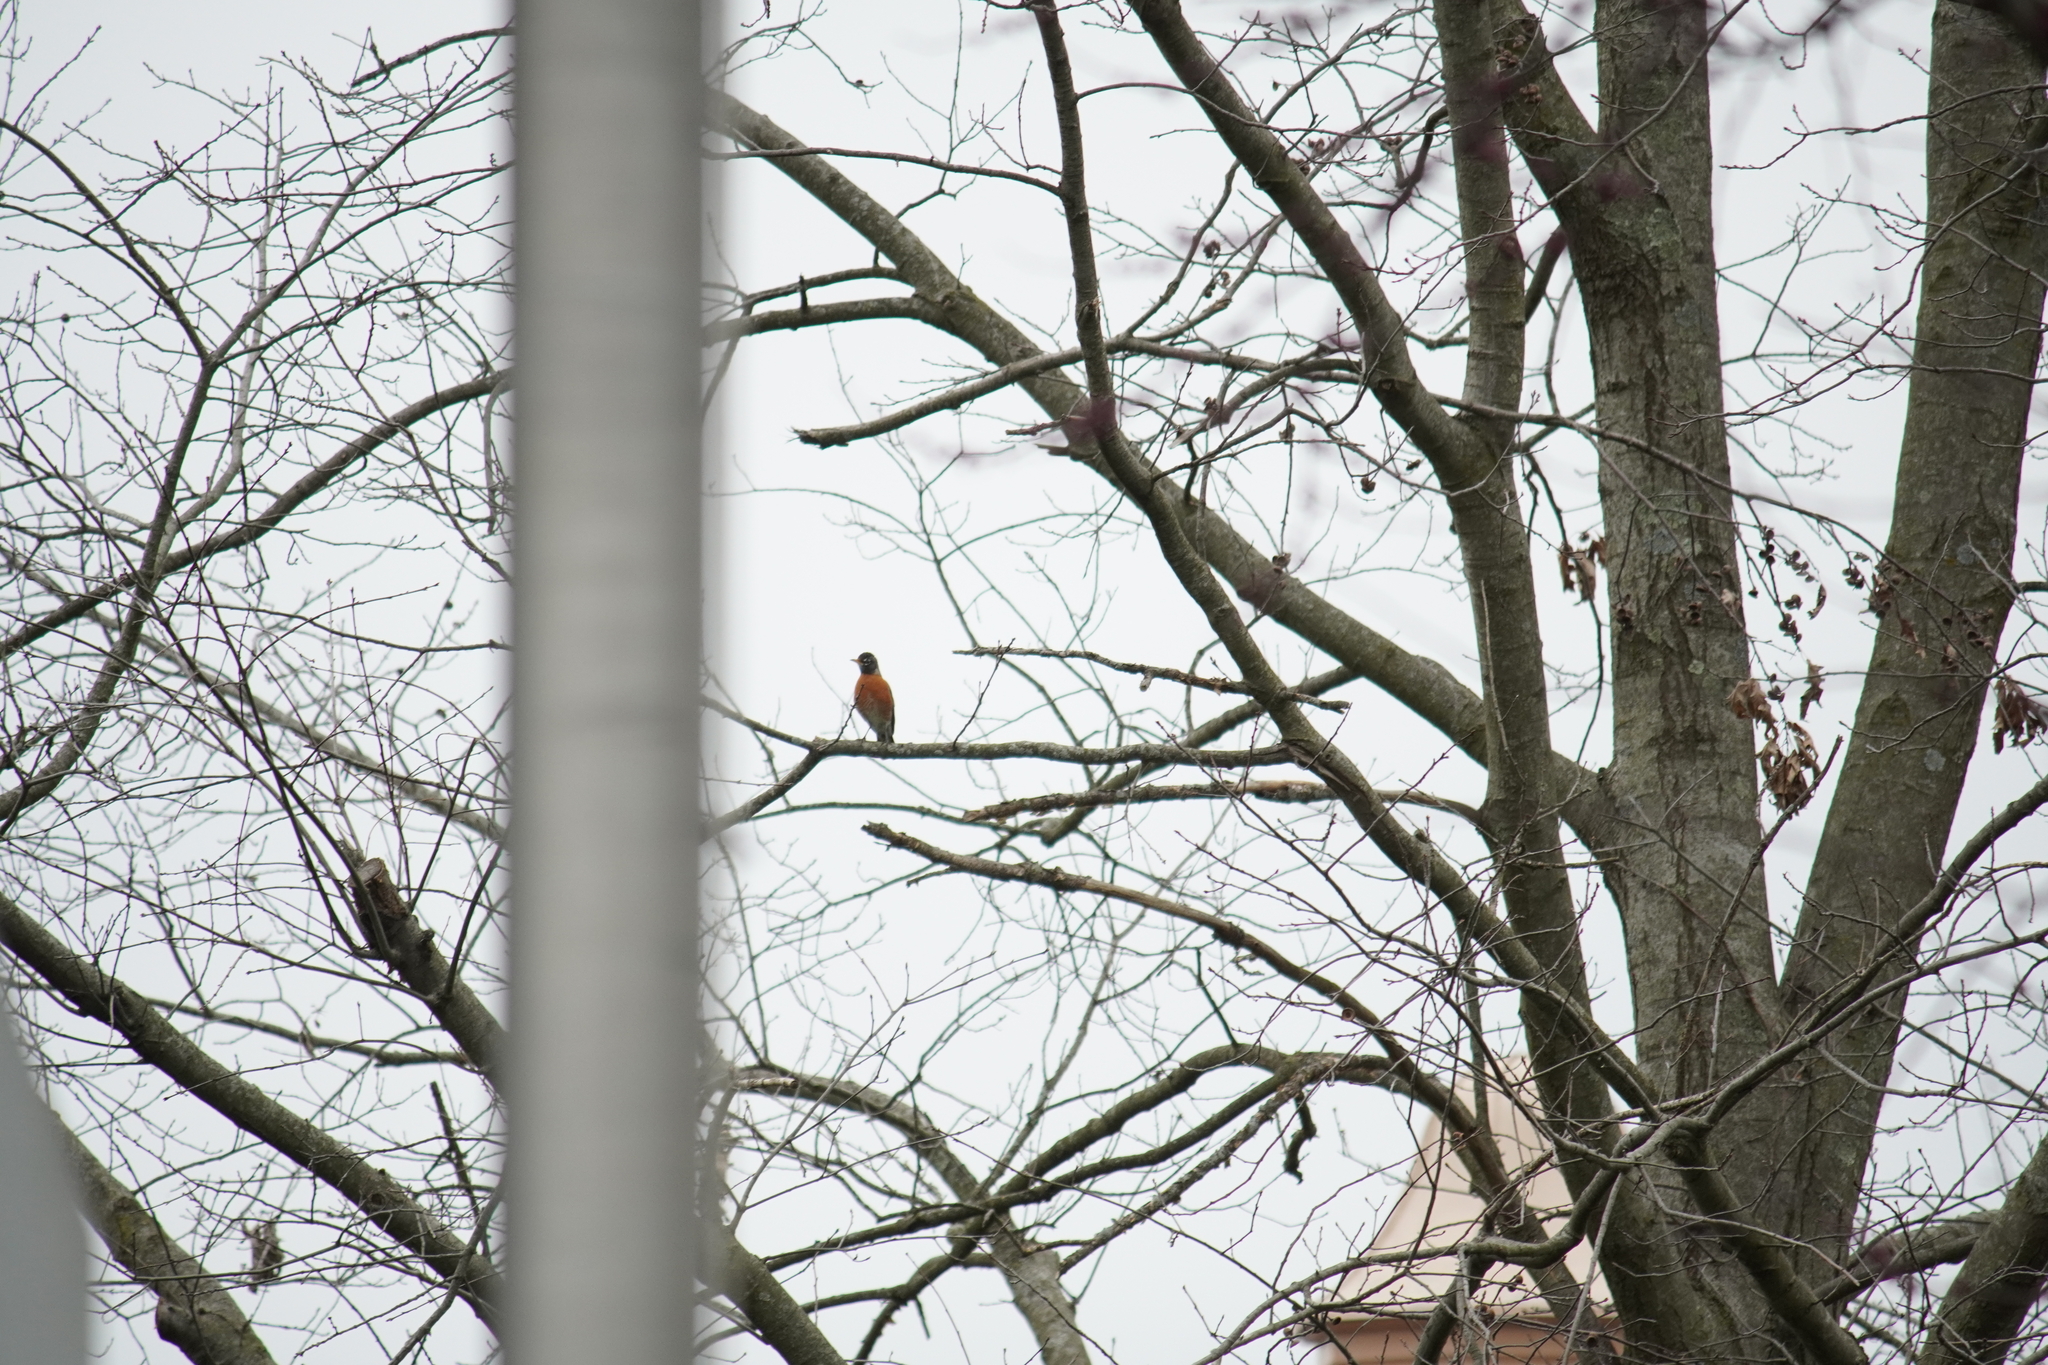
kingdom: Animalia
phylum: Chordata
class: Aves
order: Passeriformes
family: Turdidae
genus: Turdus
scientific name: Turdus migratorius
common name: American robin
